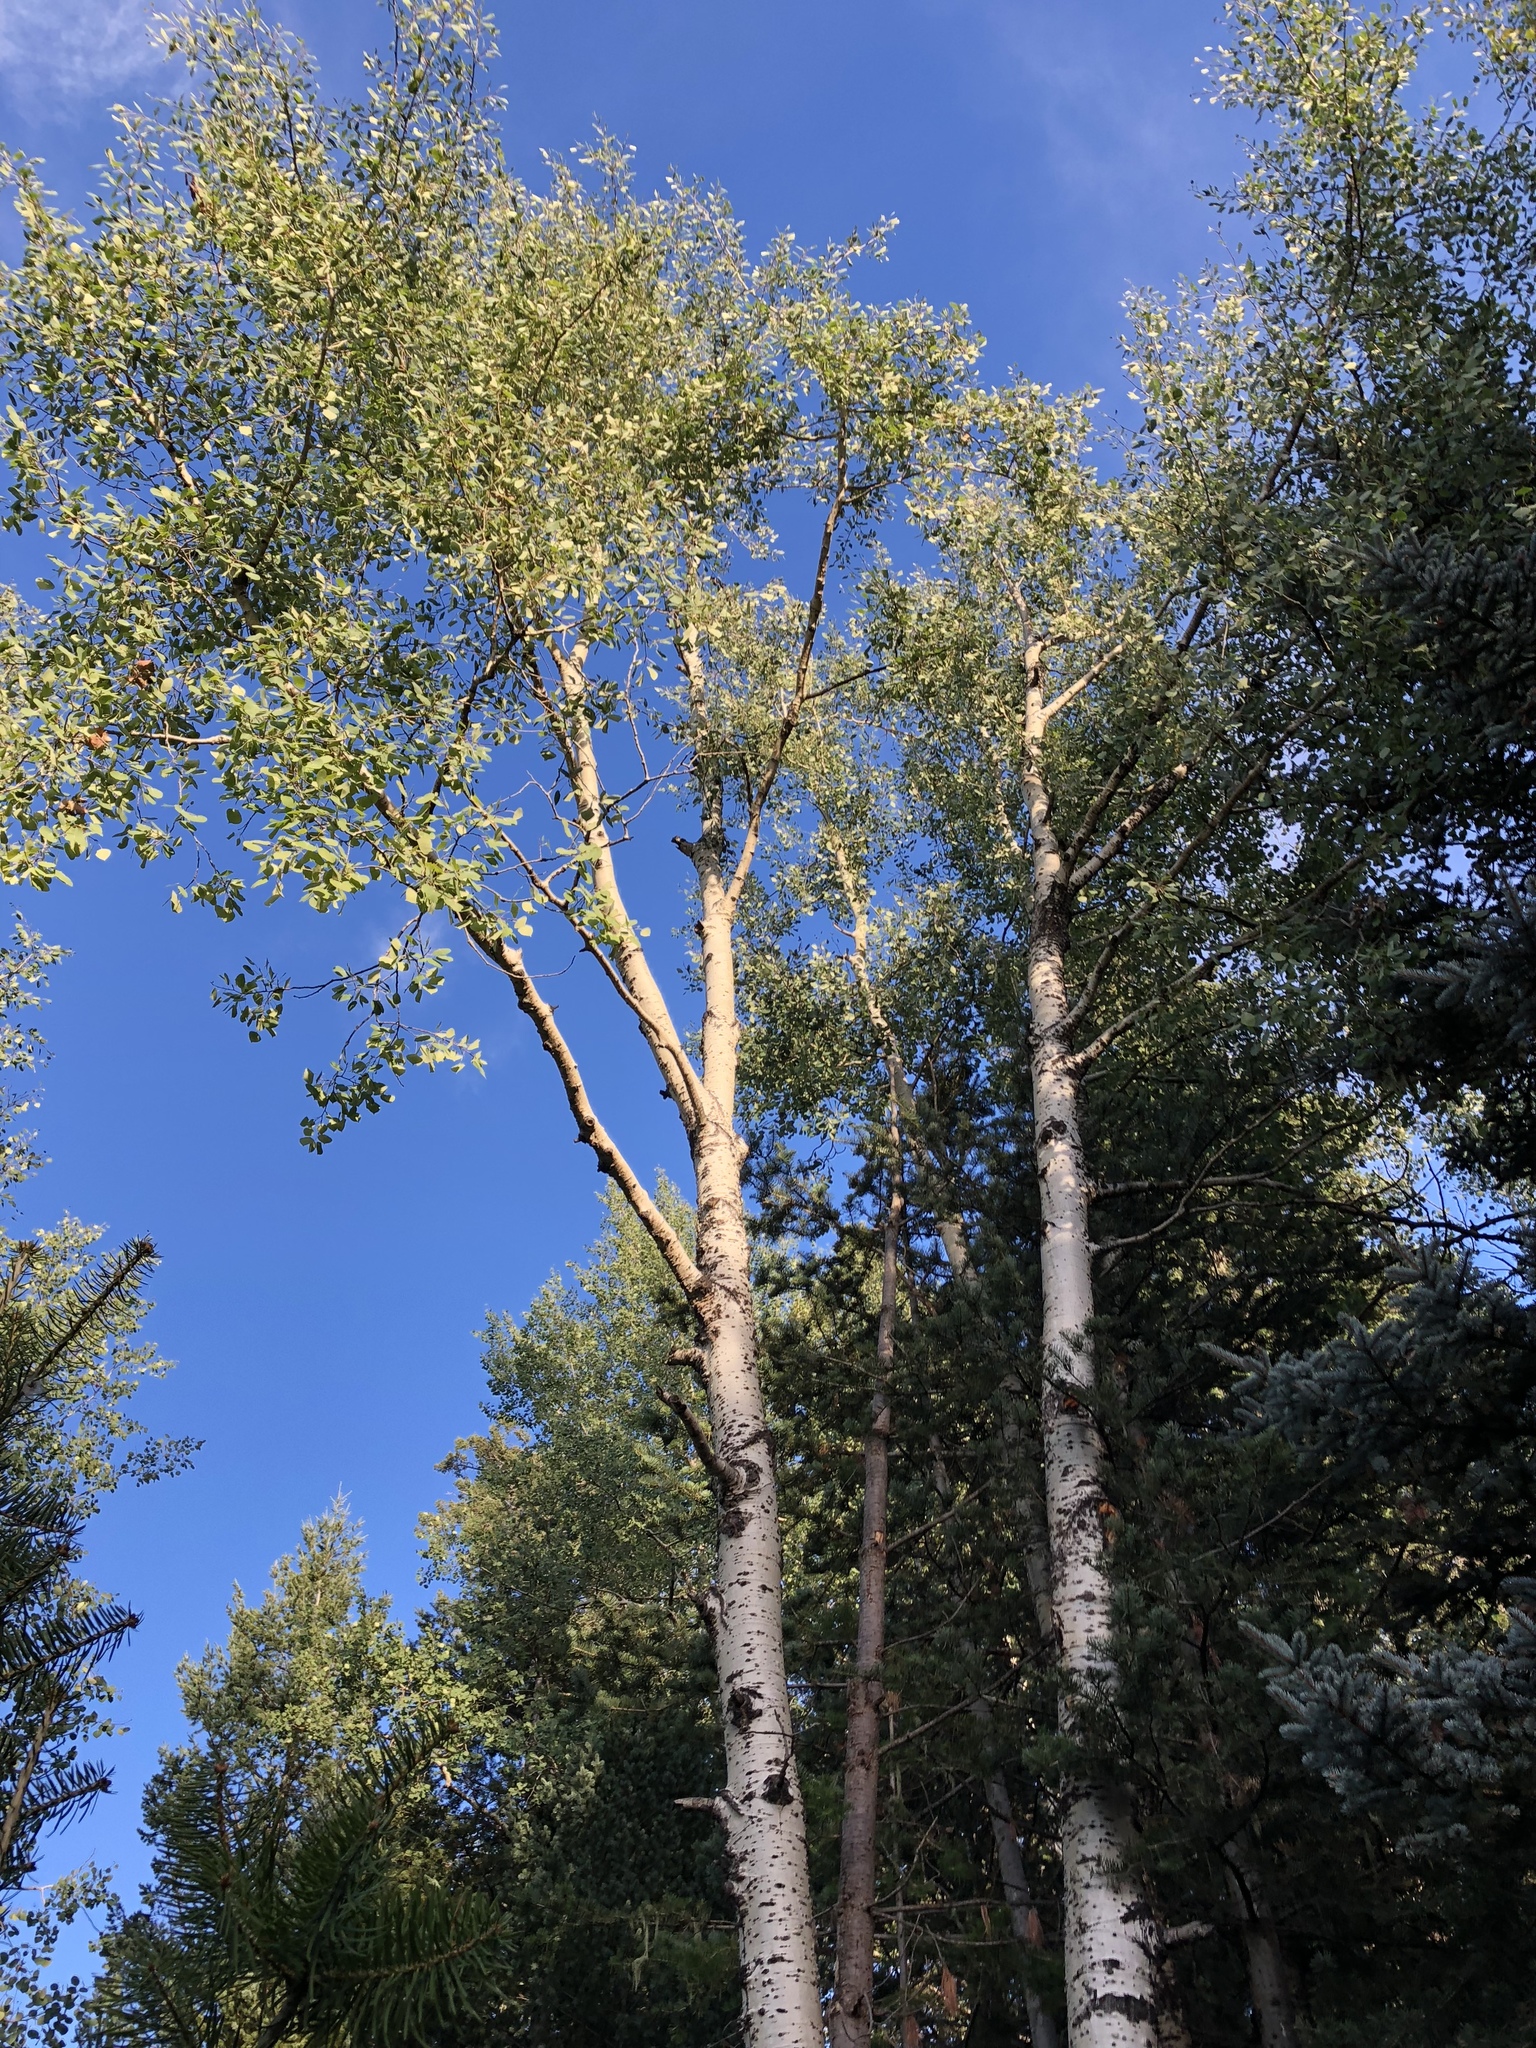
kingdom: Plantae
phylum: Tracheophyta
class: Magnoliopsida
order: Malpighiales
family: Salicaceae
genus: Populus
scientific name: Populus tremuloides
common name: Quaking aspen
